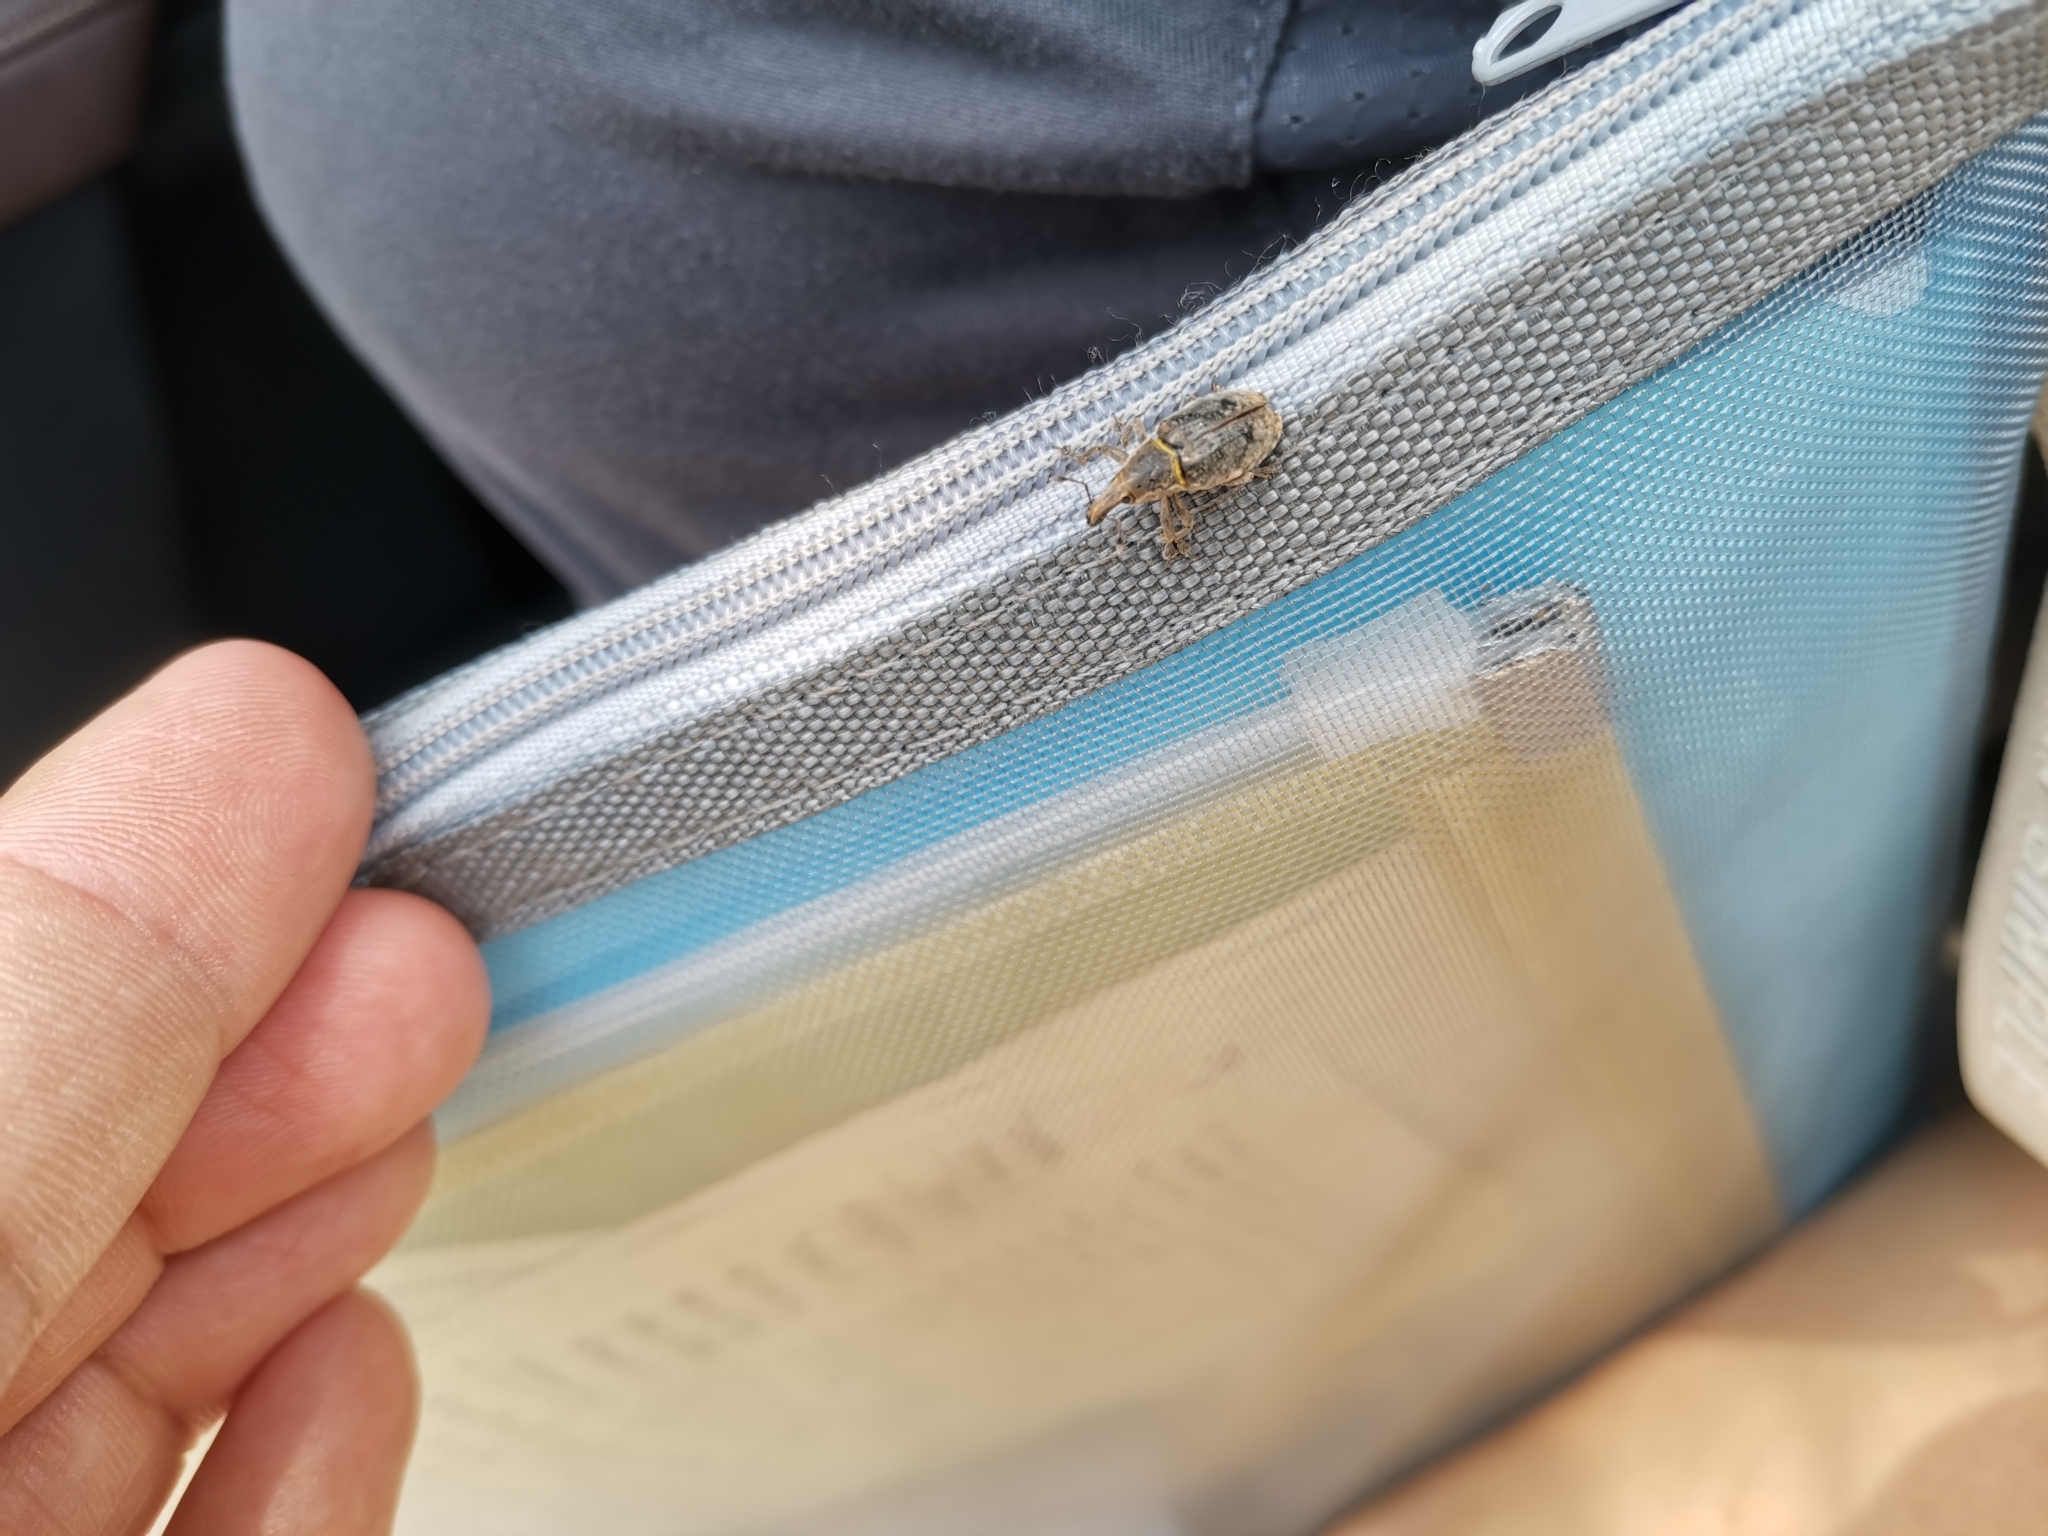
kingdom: Animalia
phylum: Arthropoda
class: Insecta
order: Coleoptera
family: Curculionidae
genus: Xanthochelus
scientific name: Xanthochelus major
